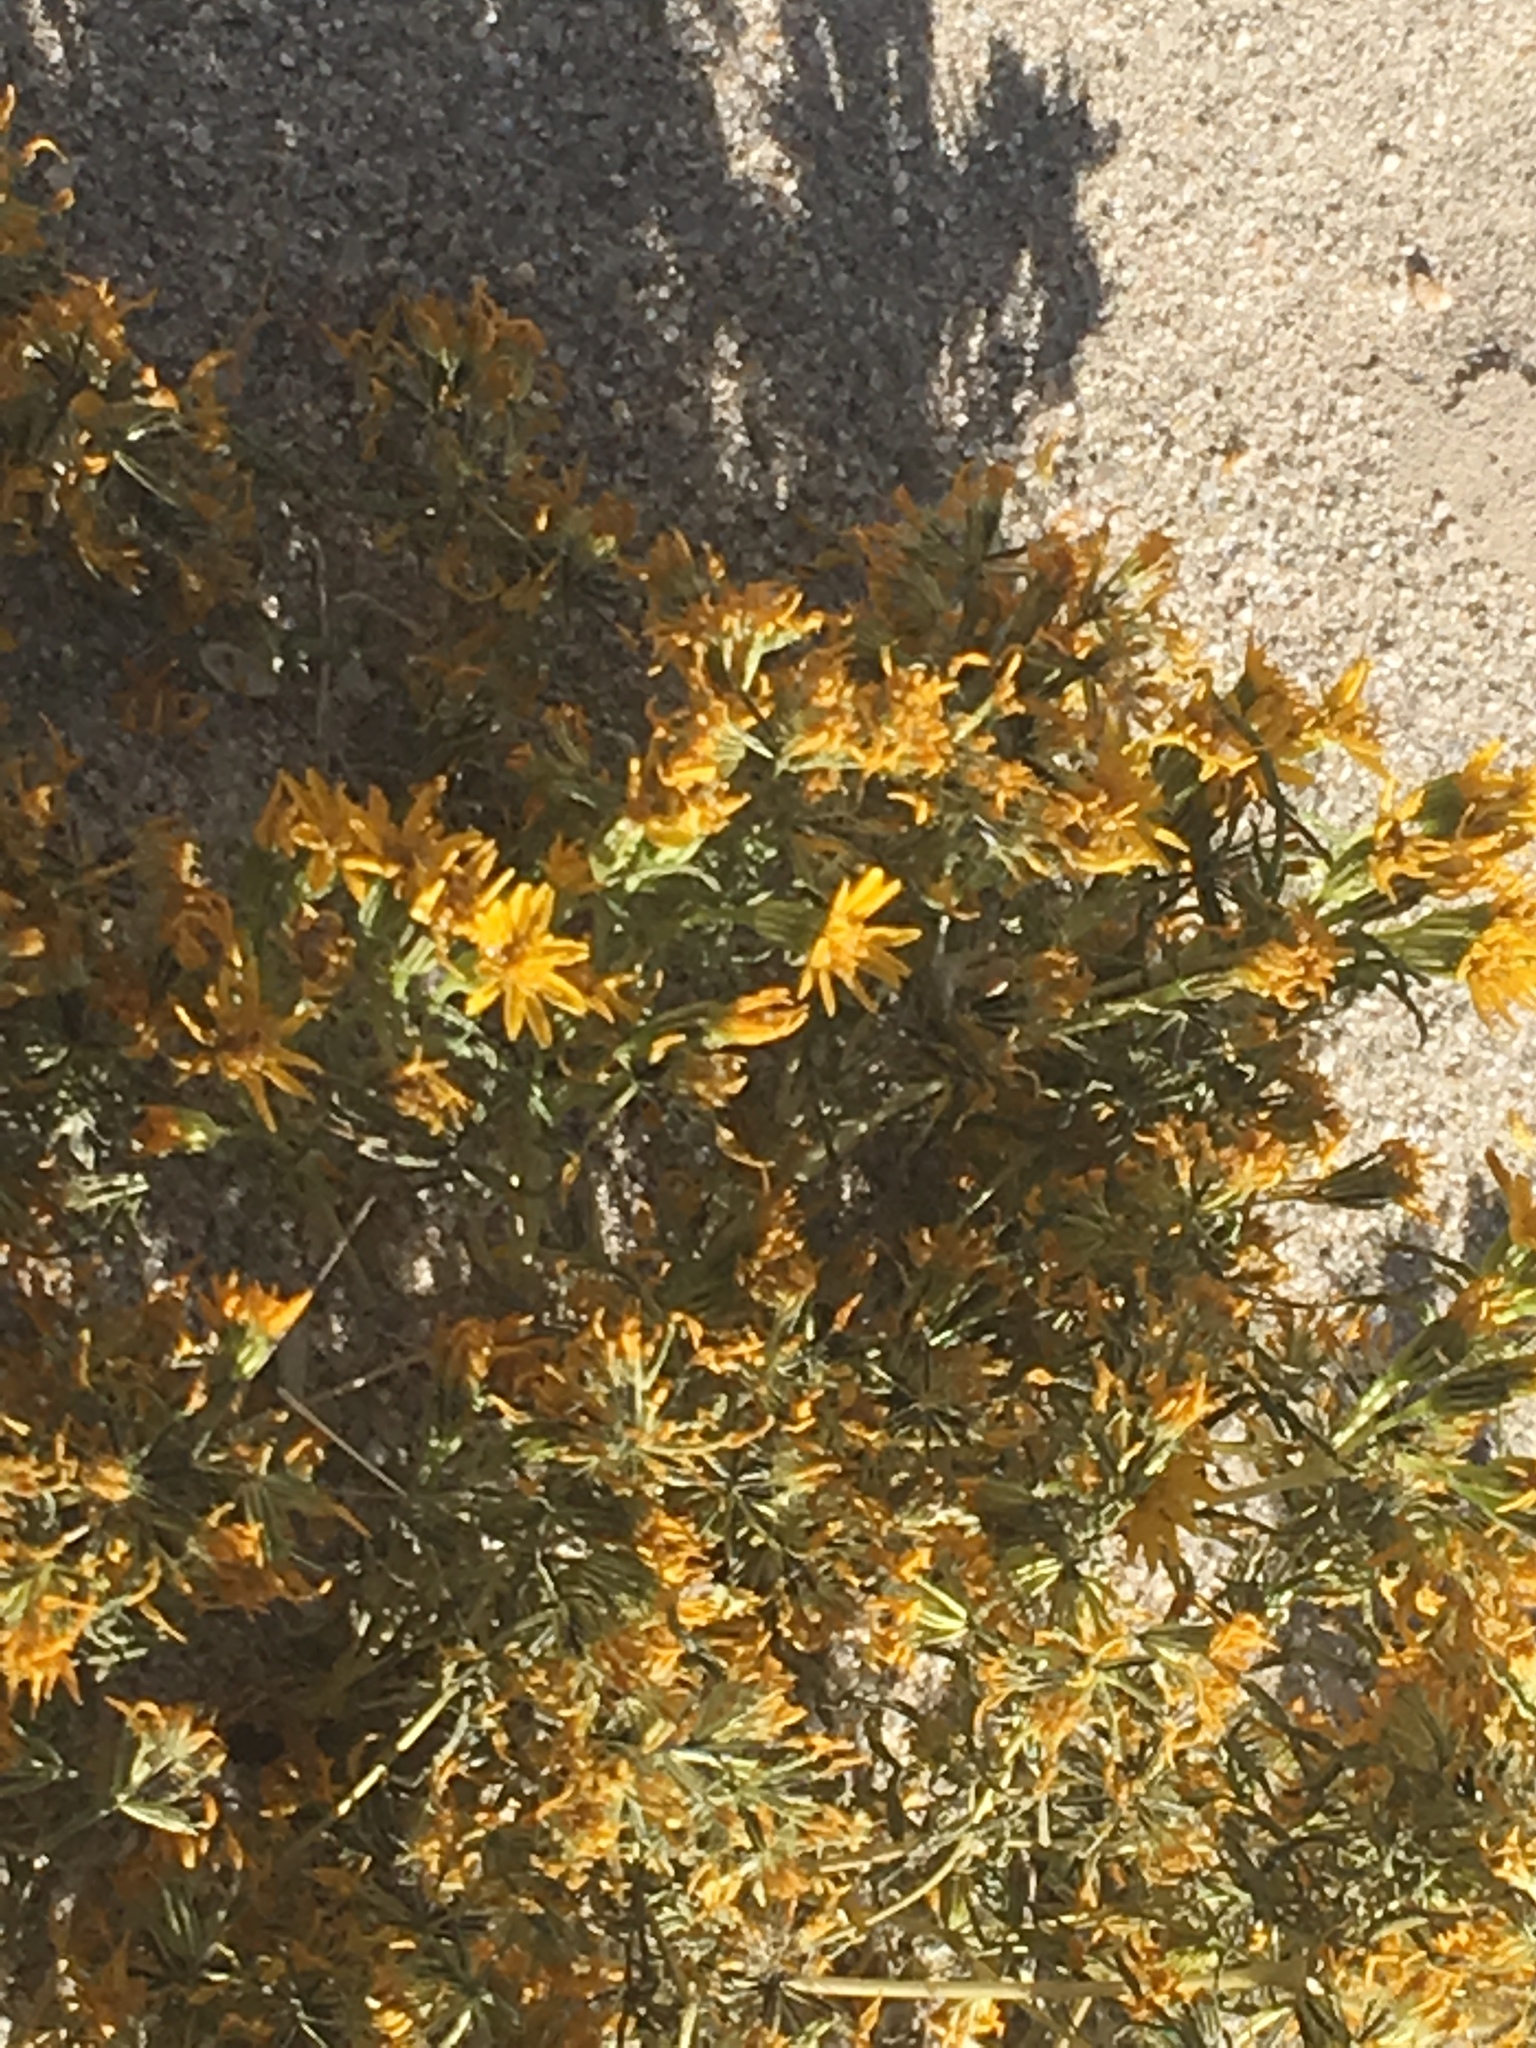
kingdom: Plantae
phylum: Tracheophyta
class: Magnoliopsida
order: Asterales
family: Asteraceae
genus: Pectis
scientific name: Pectis papposa
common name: Many-bristle chinchweed
